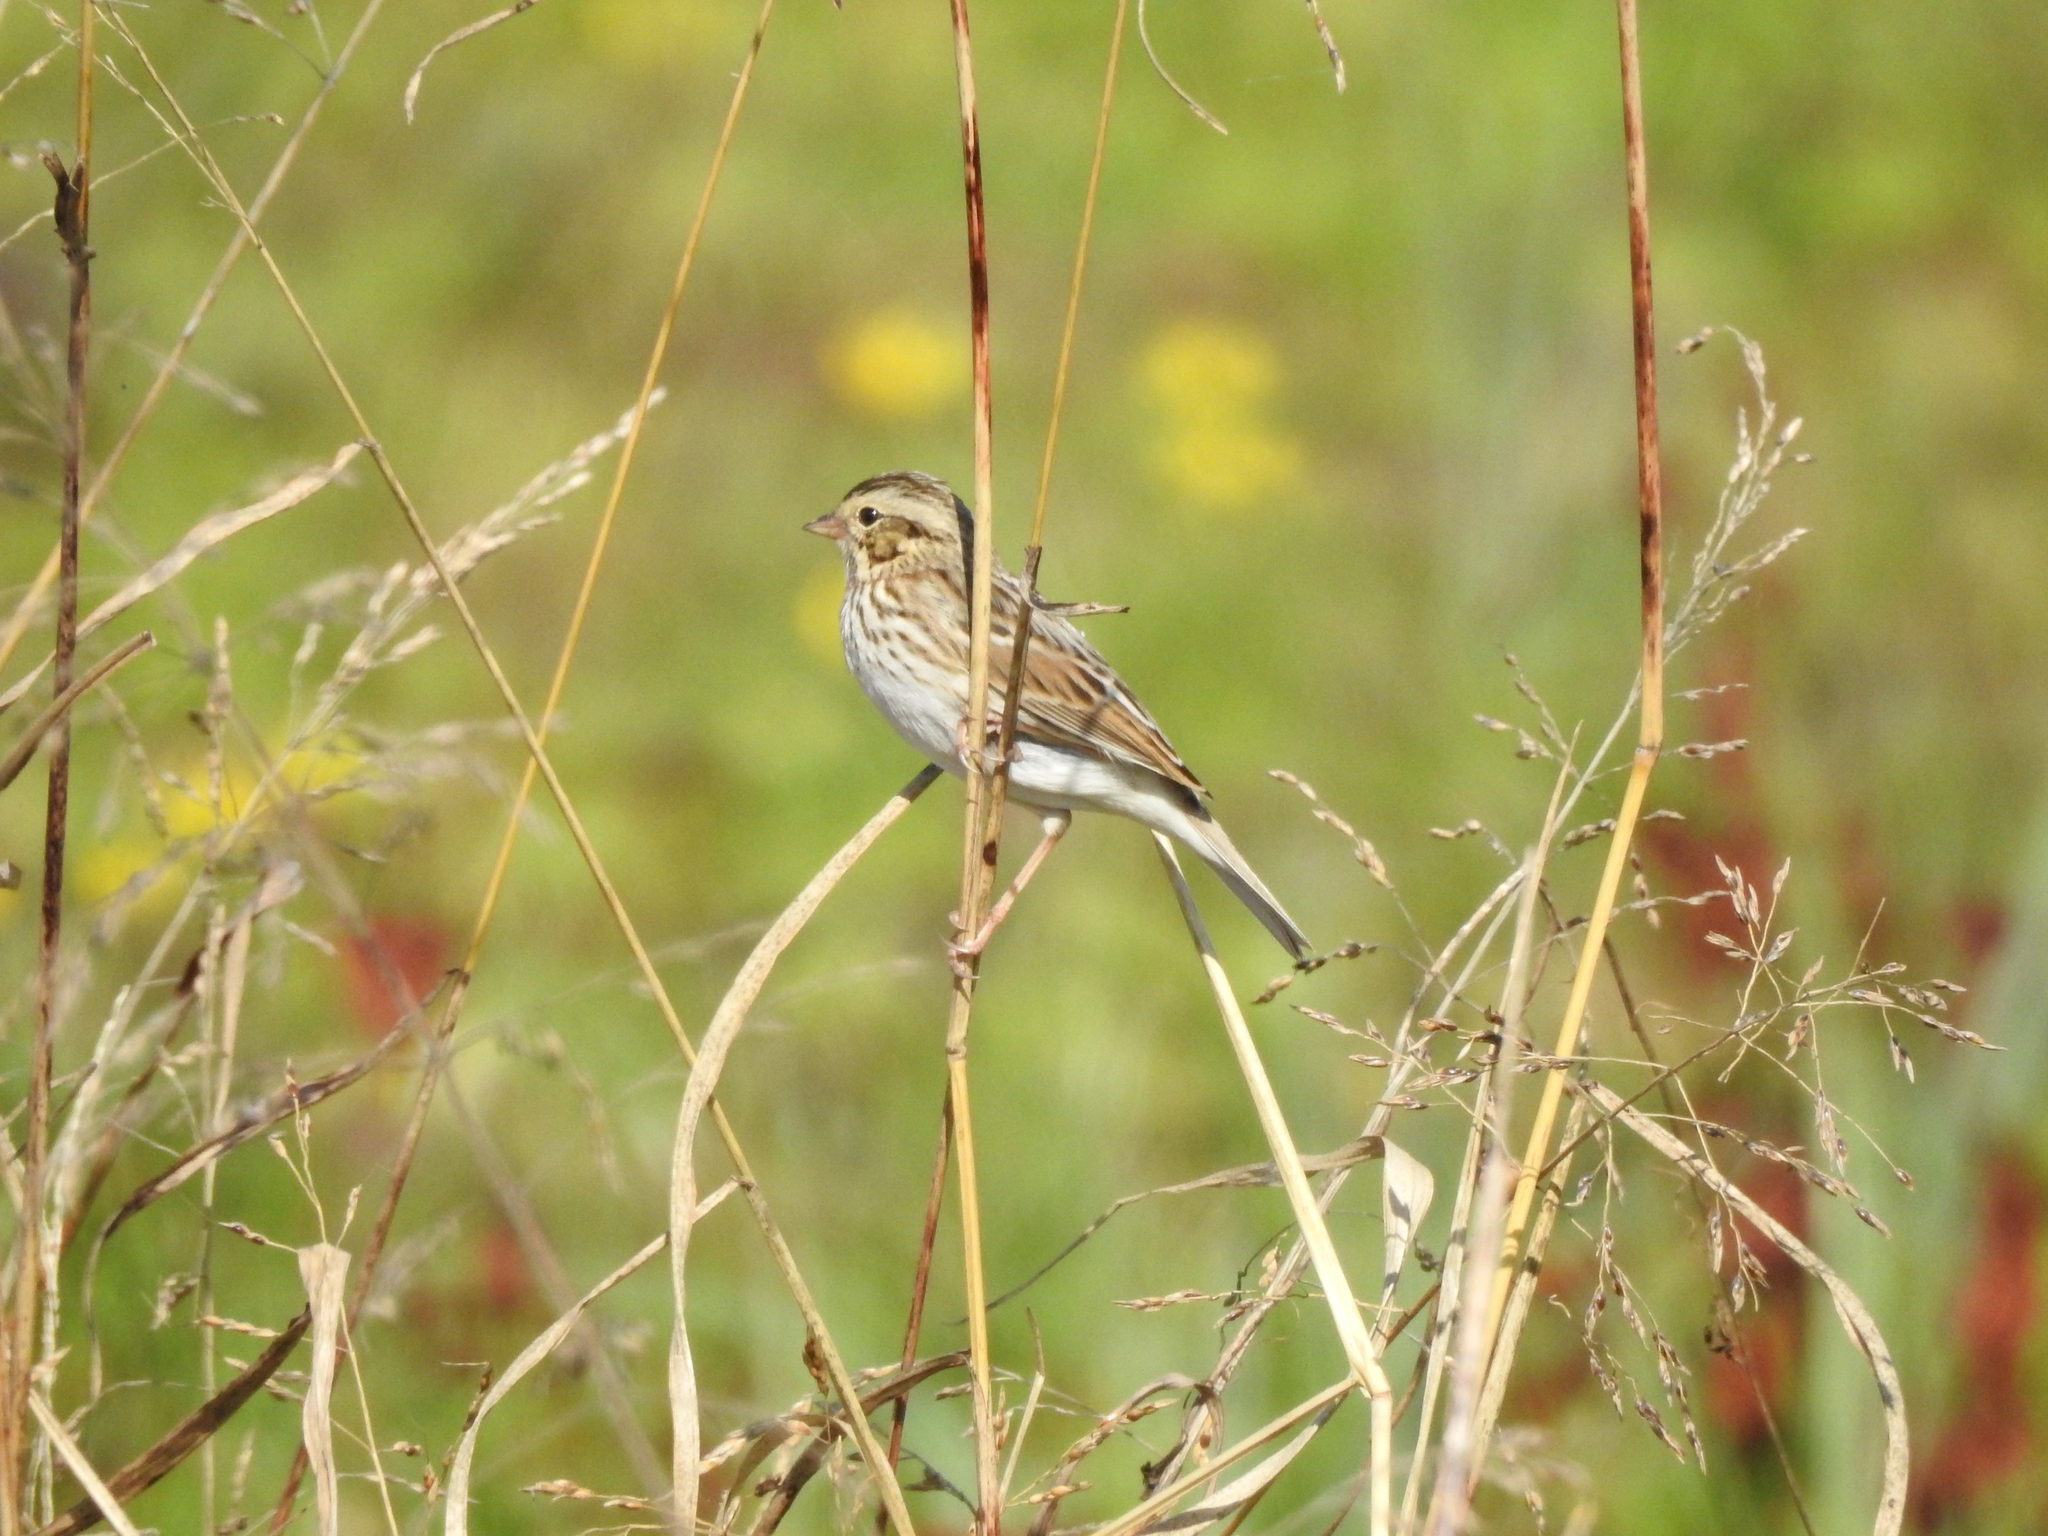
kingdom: Animalia
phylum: Chordata
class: Aves
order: Passeriformes
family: Passerellidae
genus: Passerculus
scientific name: Passerculus sandwichensis
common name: Savannah sparrow
